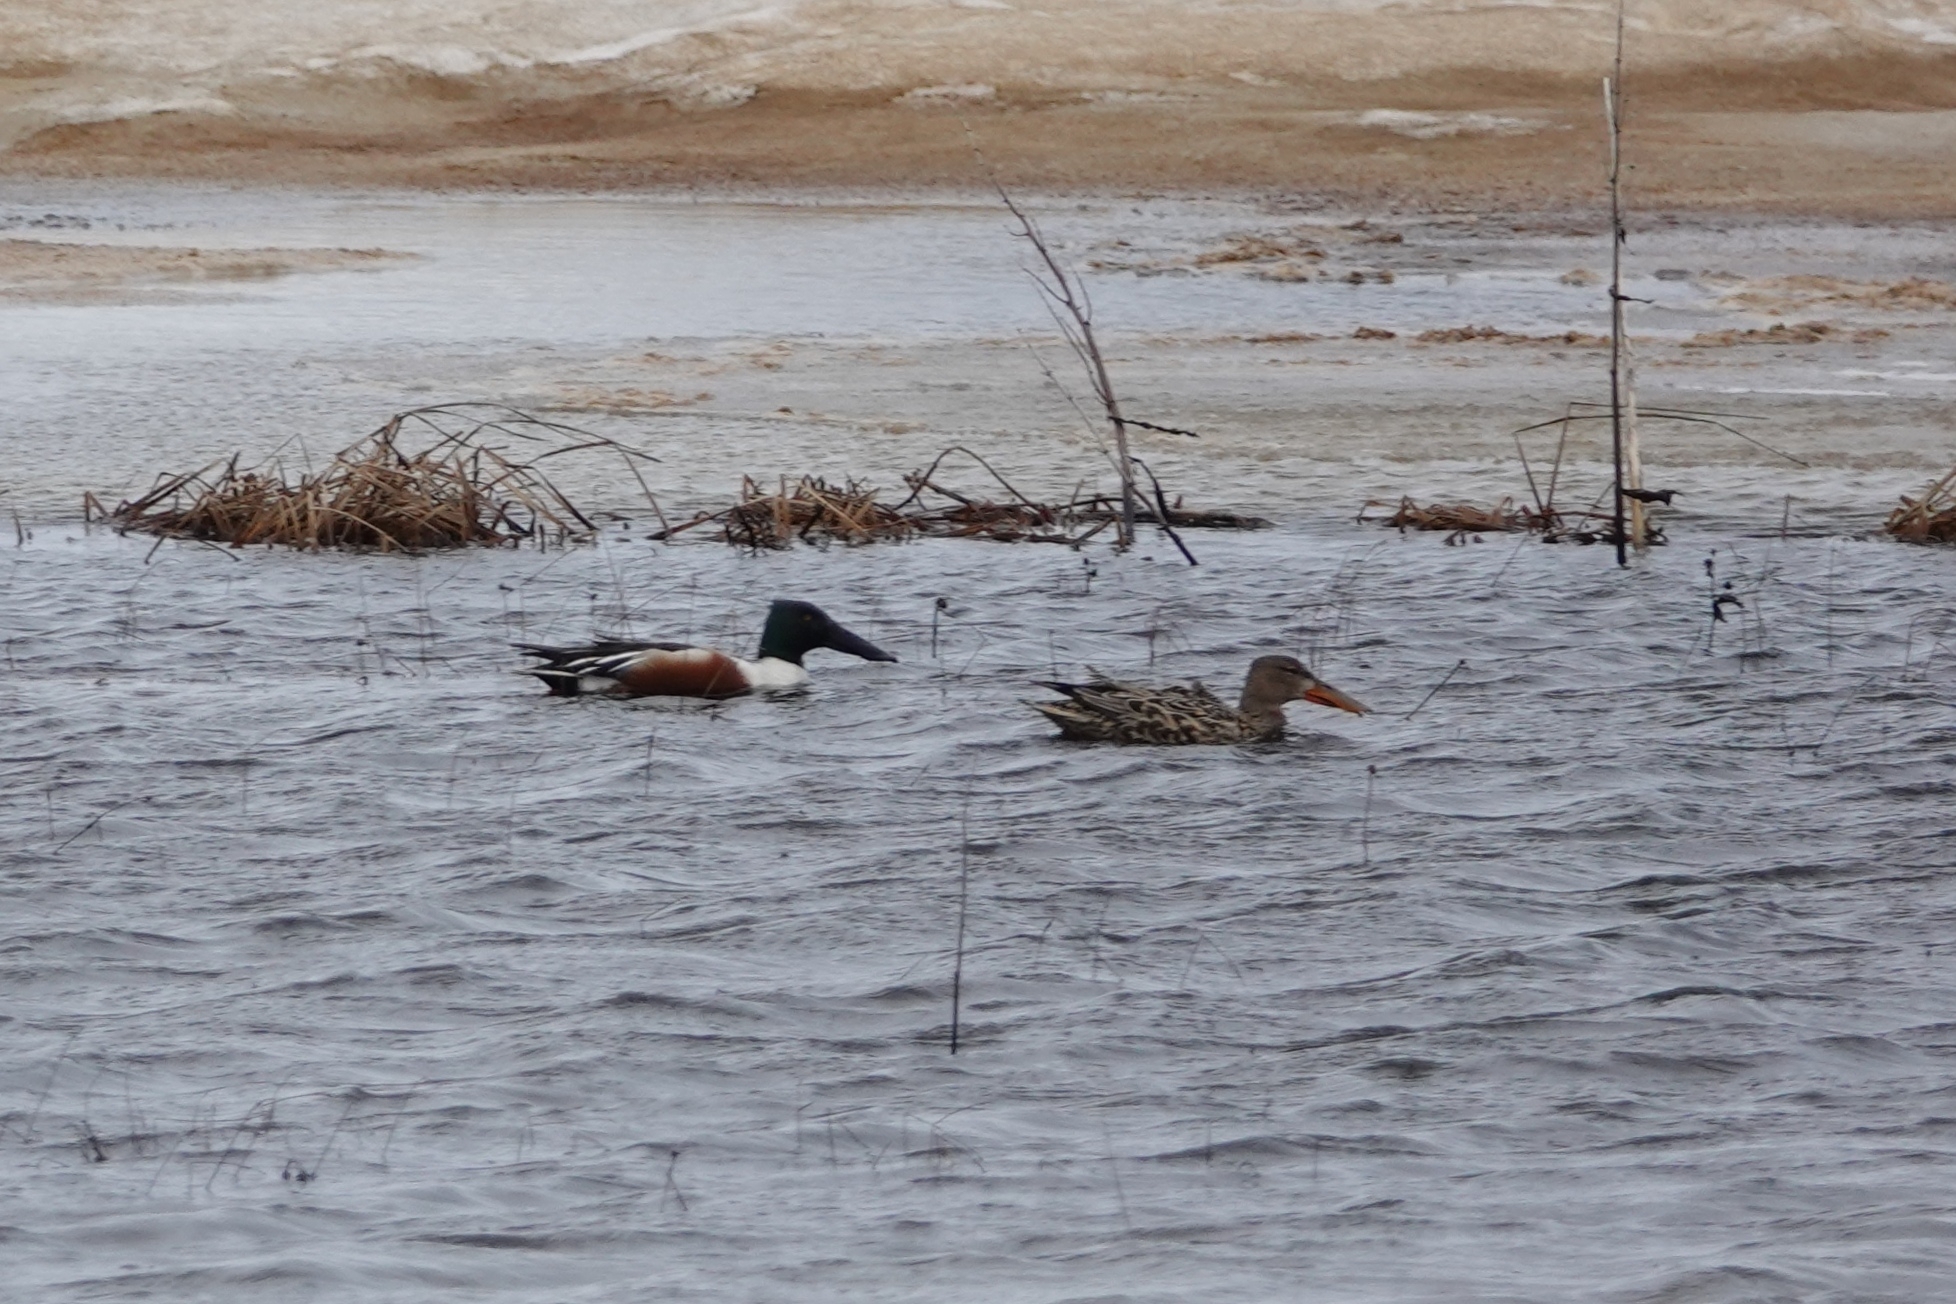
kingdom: Animalia
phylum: Chordata
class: Aves
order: Anseriformes
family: Anatidae
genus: Spatula
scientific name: Spatula clypeata
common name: Northern shoveler
